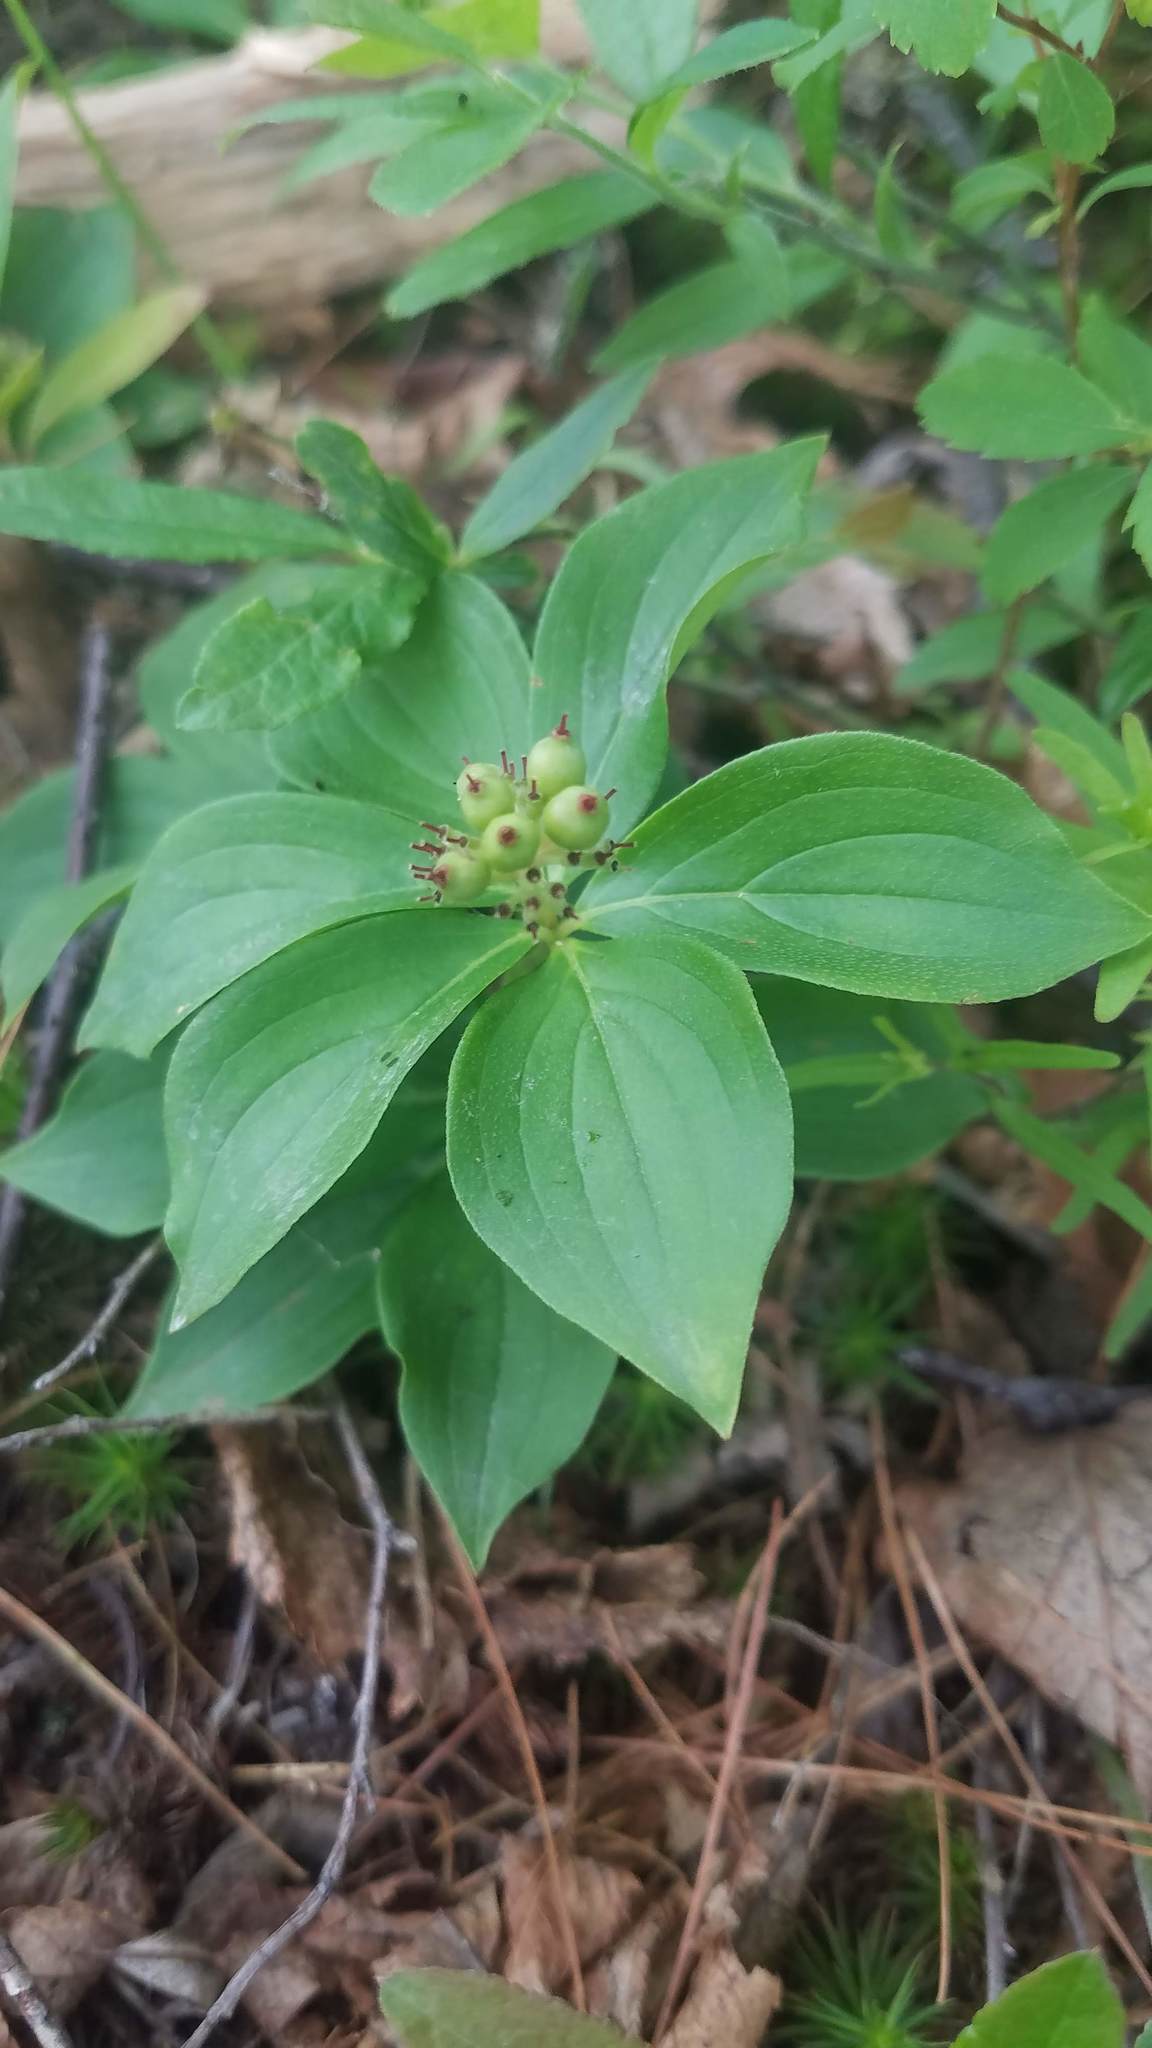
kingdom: Plantae
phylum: Tracheophyta
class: Magnoliopsida
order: Cornales
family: Cornaceae
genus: Cornus
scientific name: Cornus canadensis
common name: Creeping dogwood
